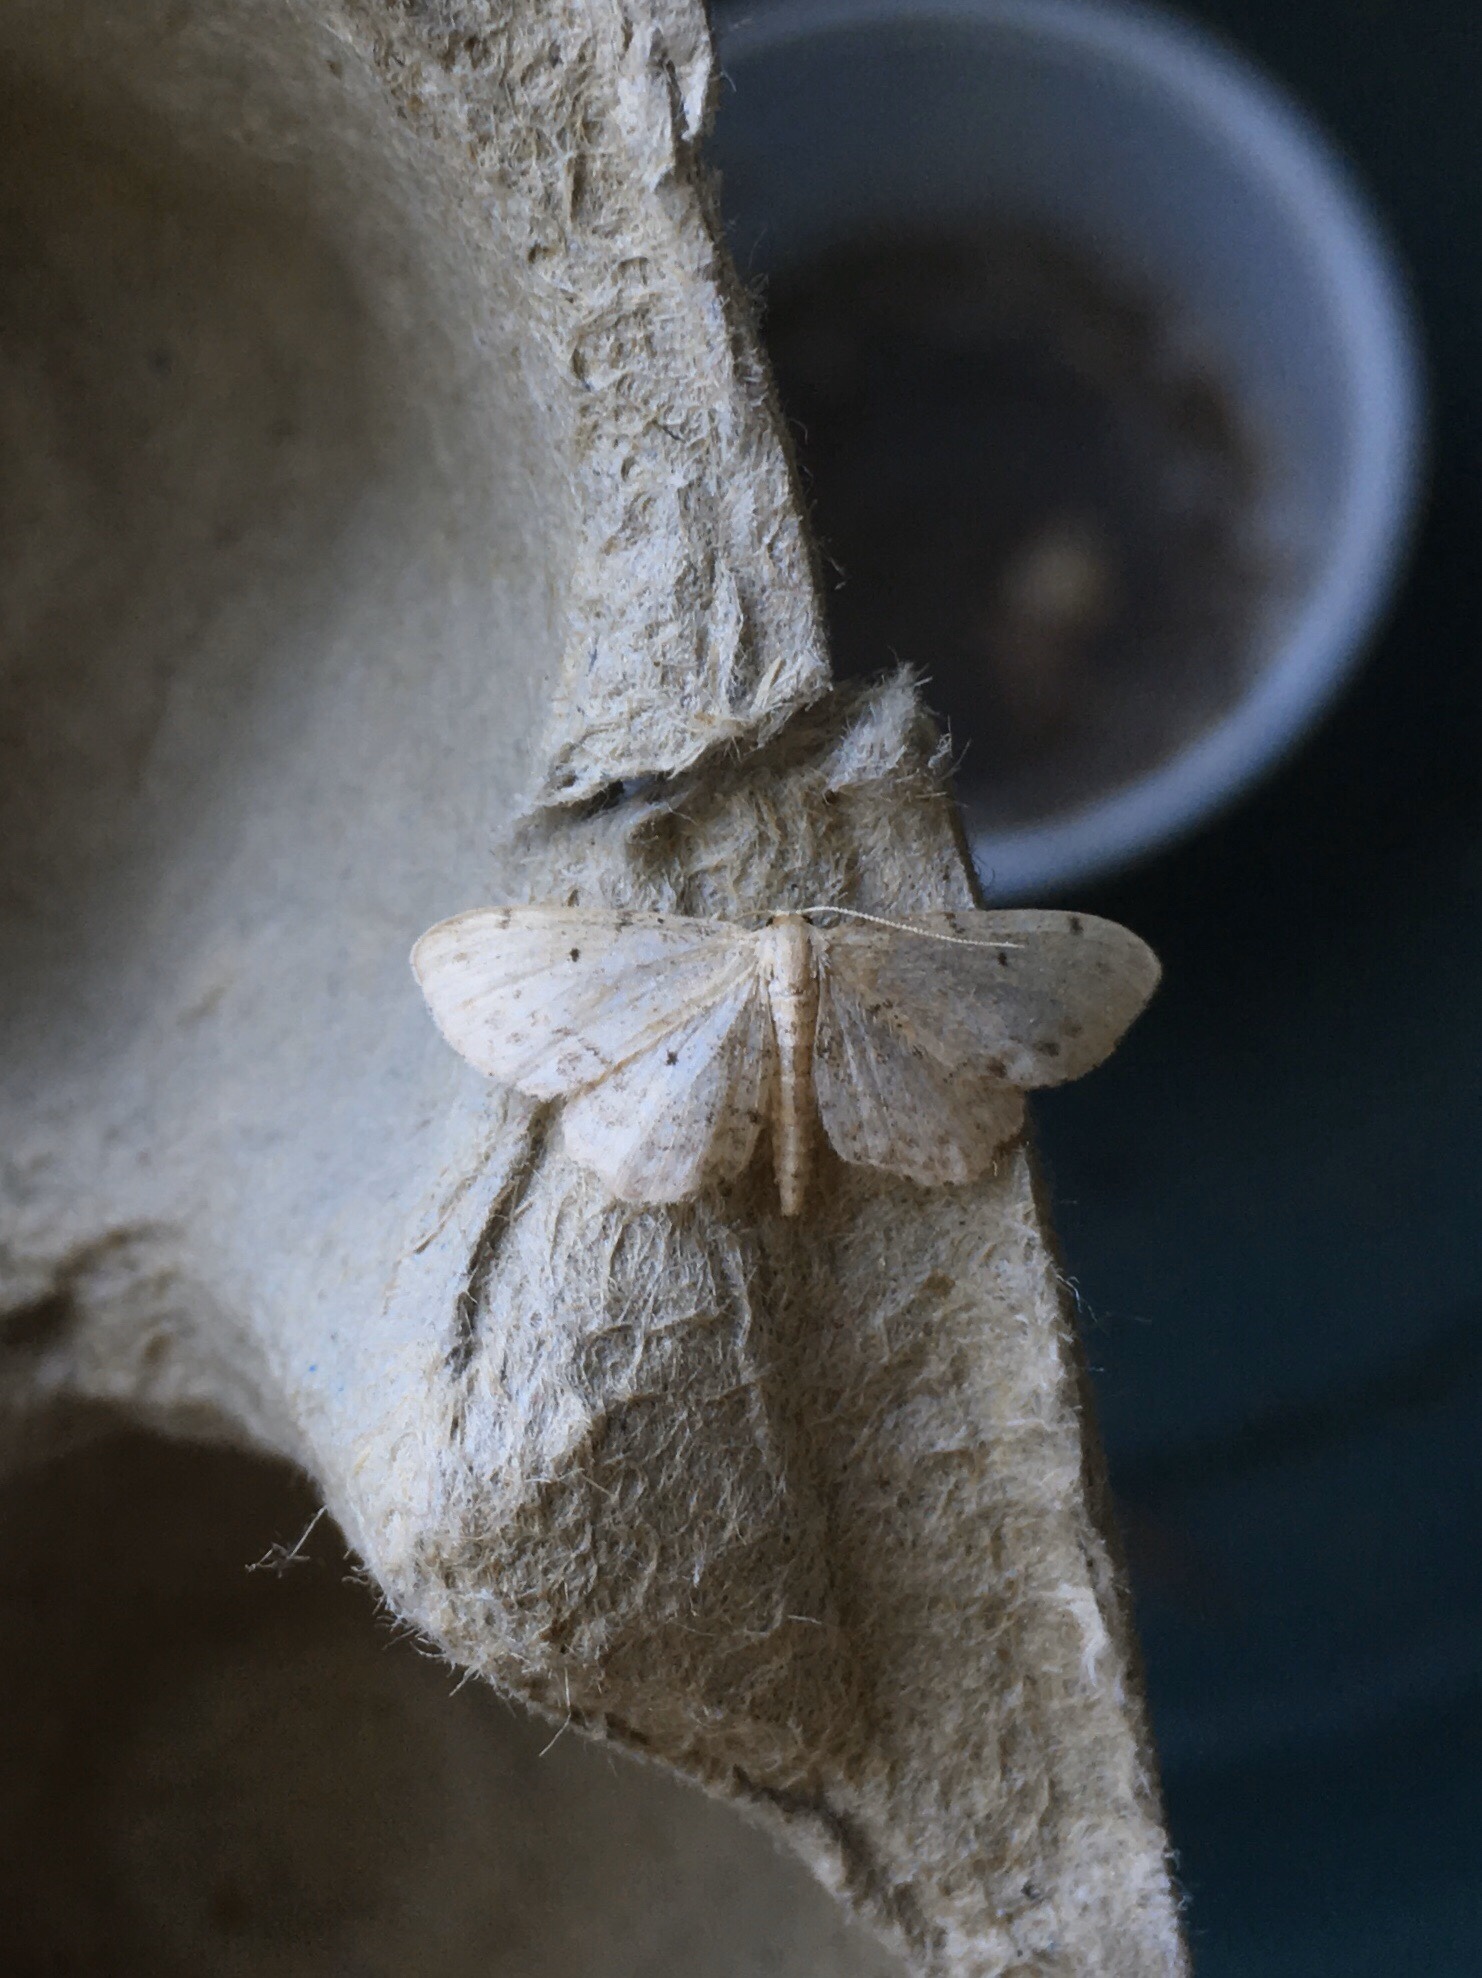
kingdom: Animalia
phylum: Arthropoda
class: Insecta
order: Lepidoptera
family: Geometridae
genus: Idaea
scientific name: Idaea dimidiata
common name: Single-dotted wave
